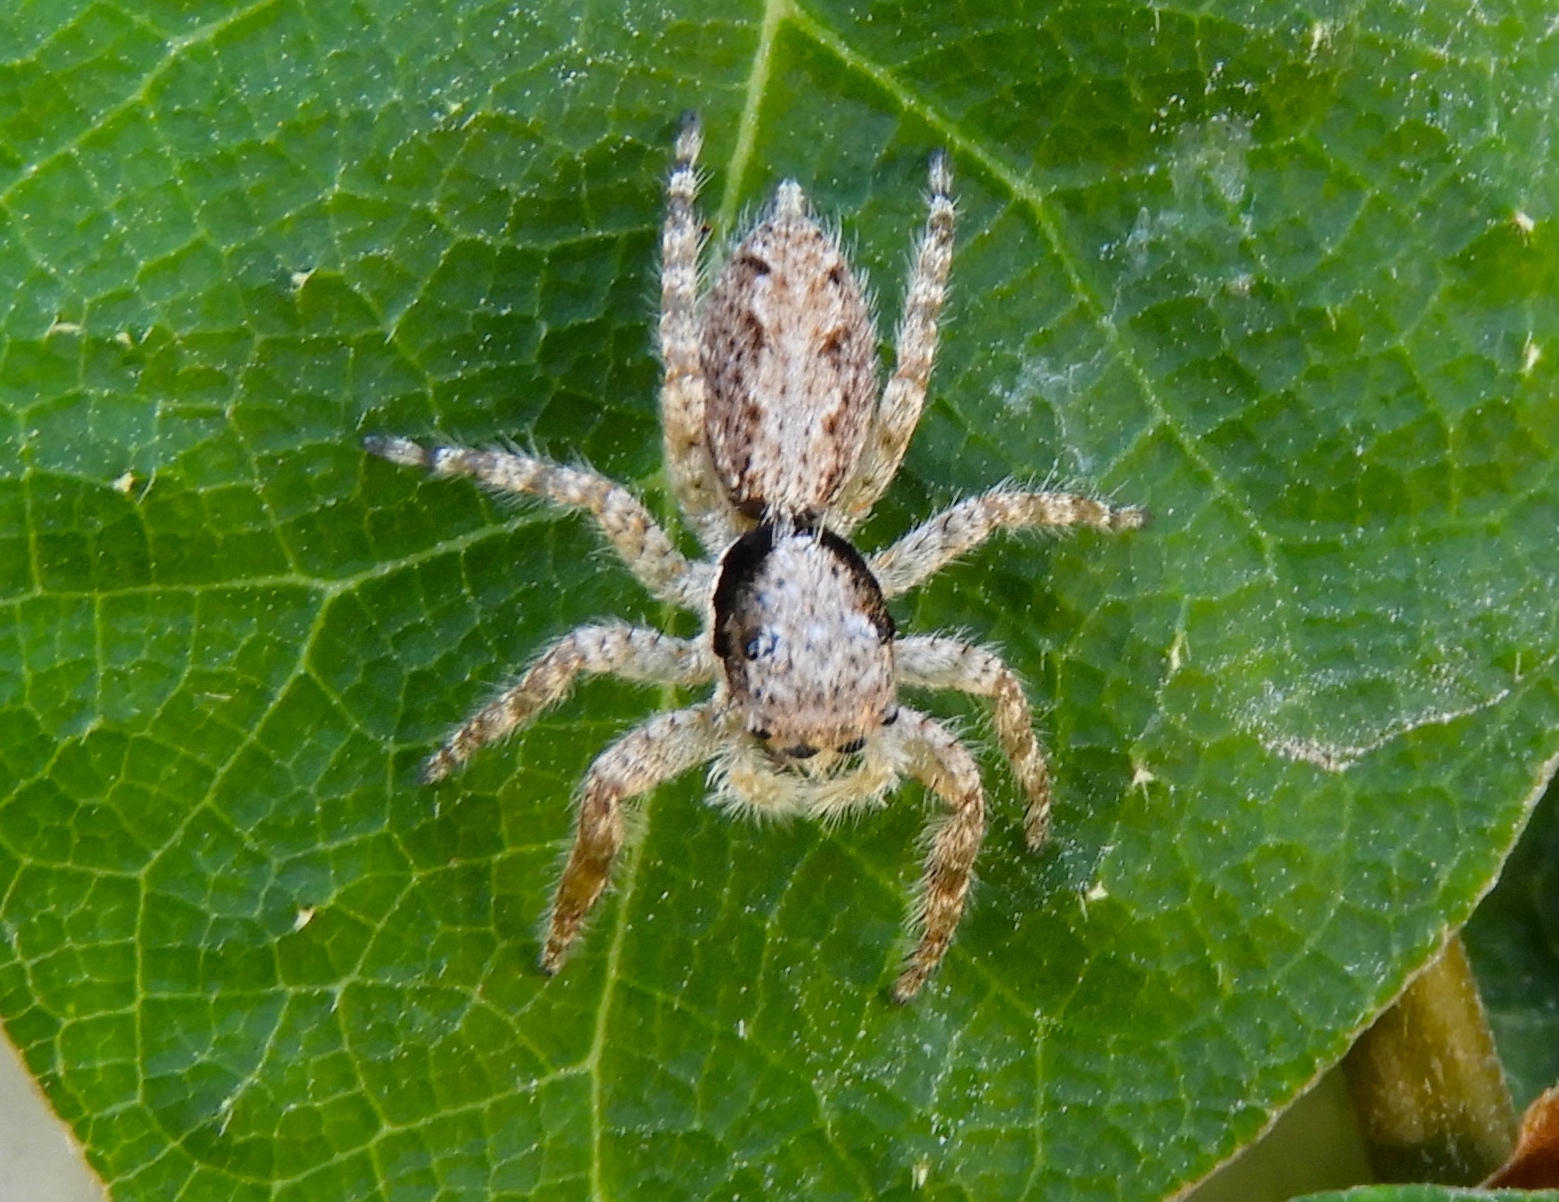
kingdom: Animalia
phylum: Arthropoda
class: Arachnida
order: Araneae
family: Salticidae
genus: Balmaceda
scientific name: Balmaceda
